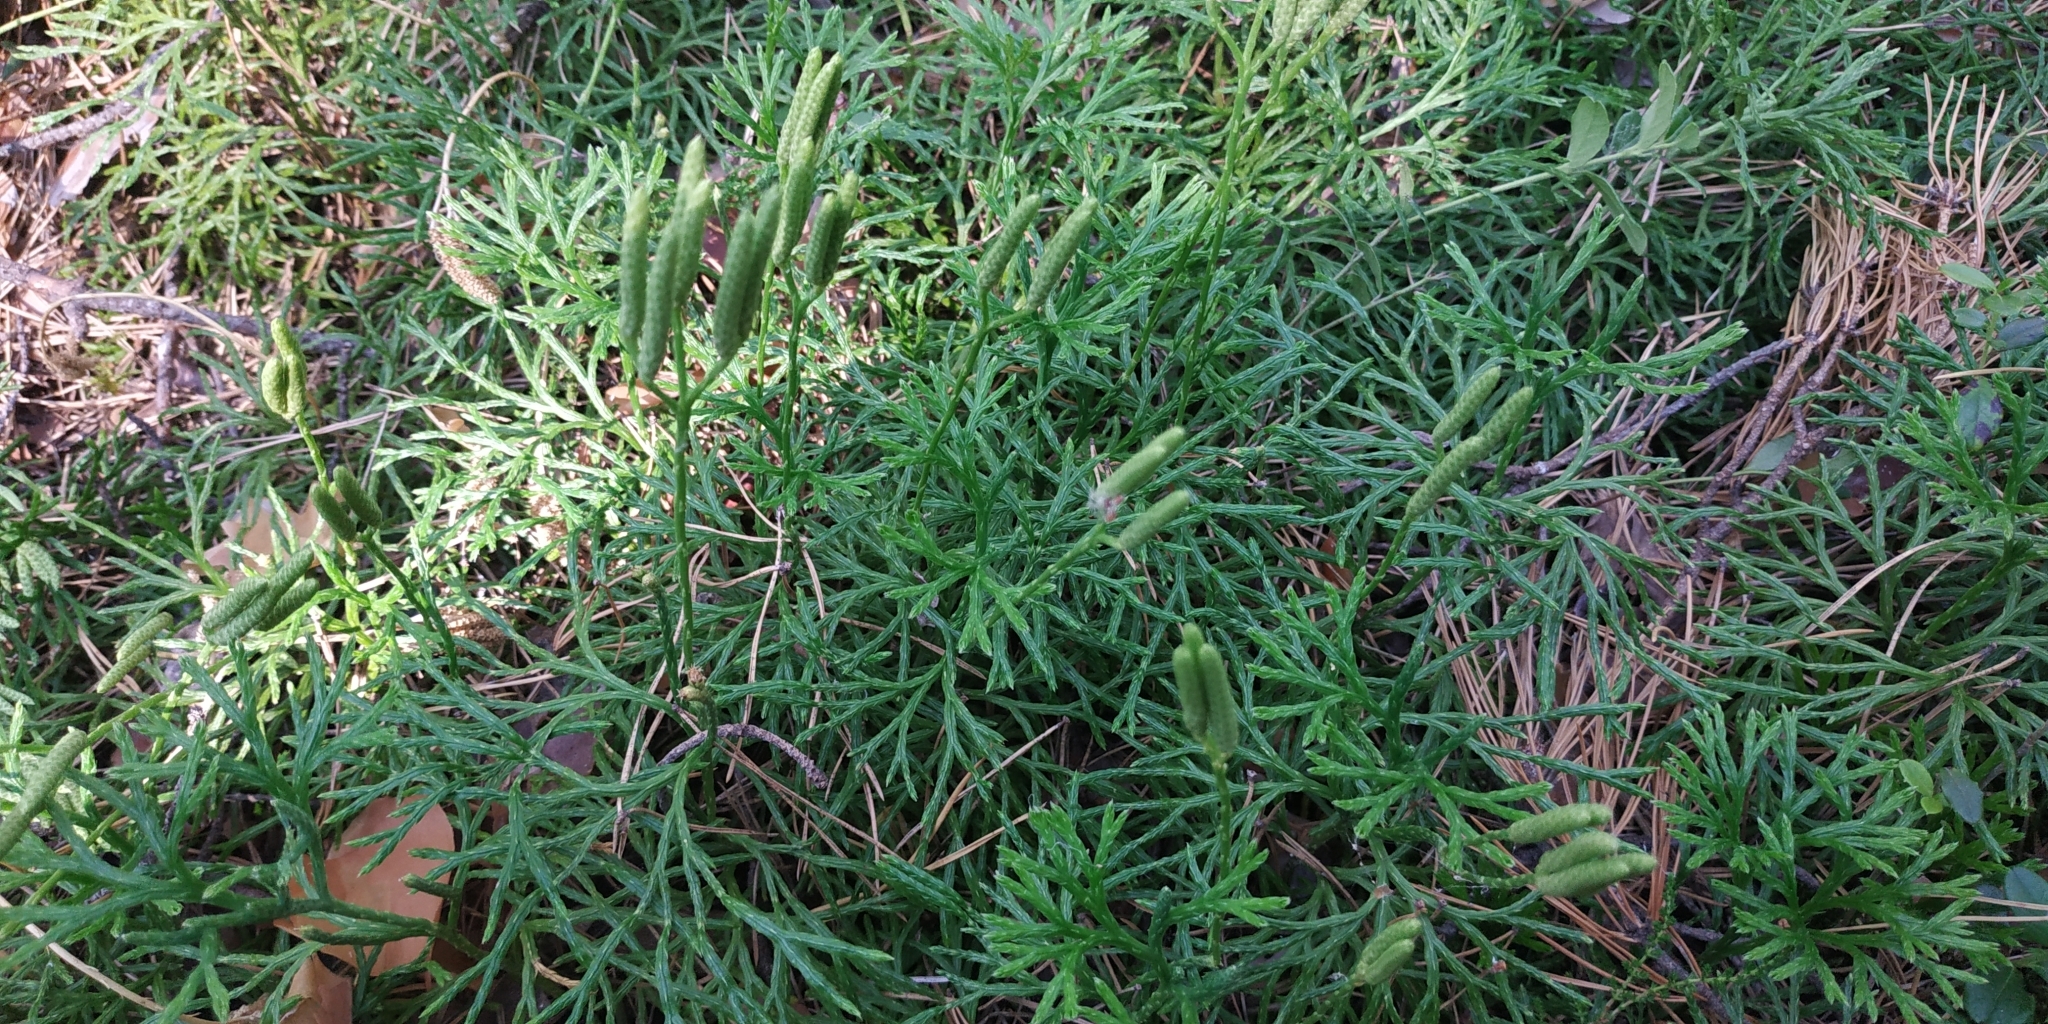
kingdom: Plantae
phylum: Tracheophyta
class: Lycopodiopsida
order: Lycopodiales
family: Lycopodiaceae
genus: Diphasiastrum
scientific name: Diphasiastrum complanatum
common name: Northern running-pine
